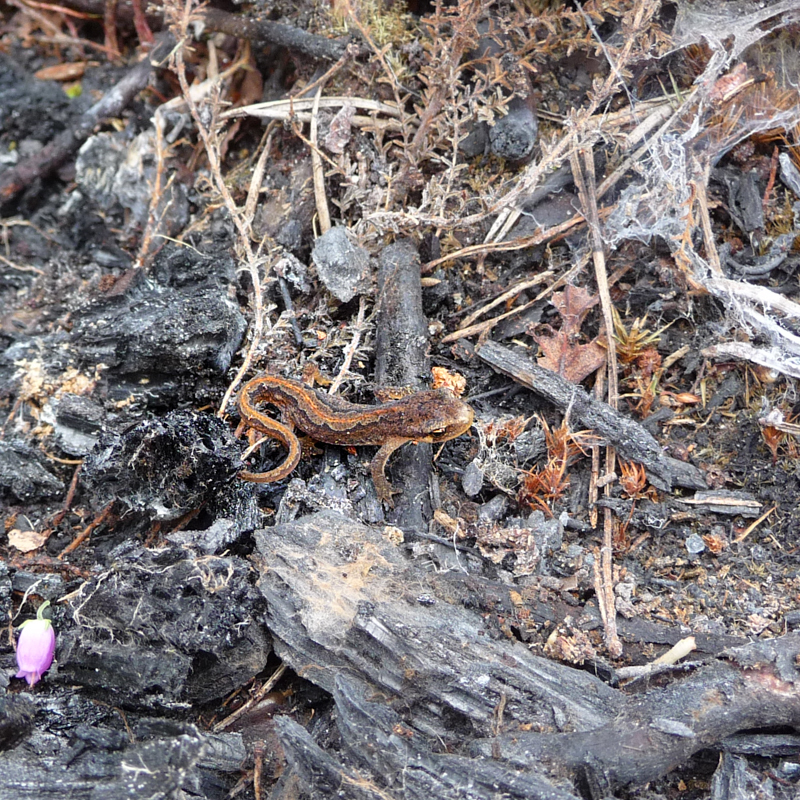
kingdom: Animalia
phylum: Chordata
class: Amphibia
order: Caudata
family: Salamandridae
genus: Lissotriton
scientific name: Lissotriton vulgaris
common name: Smooth newt
